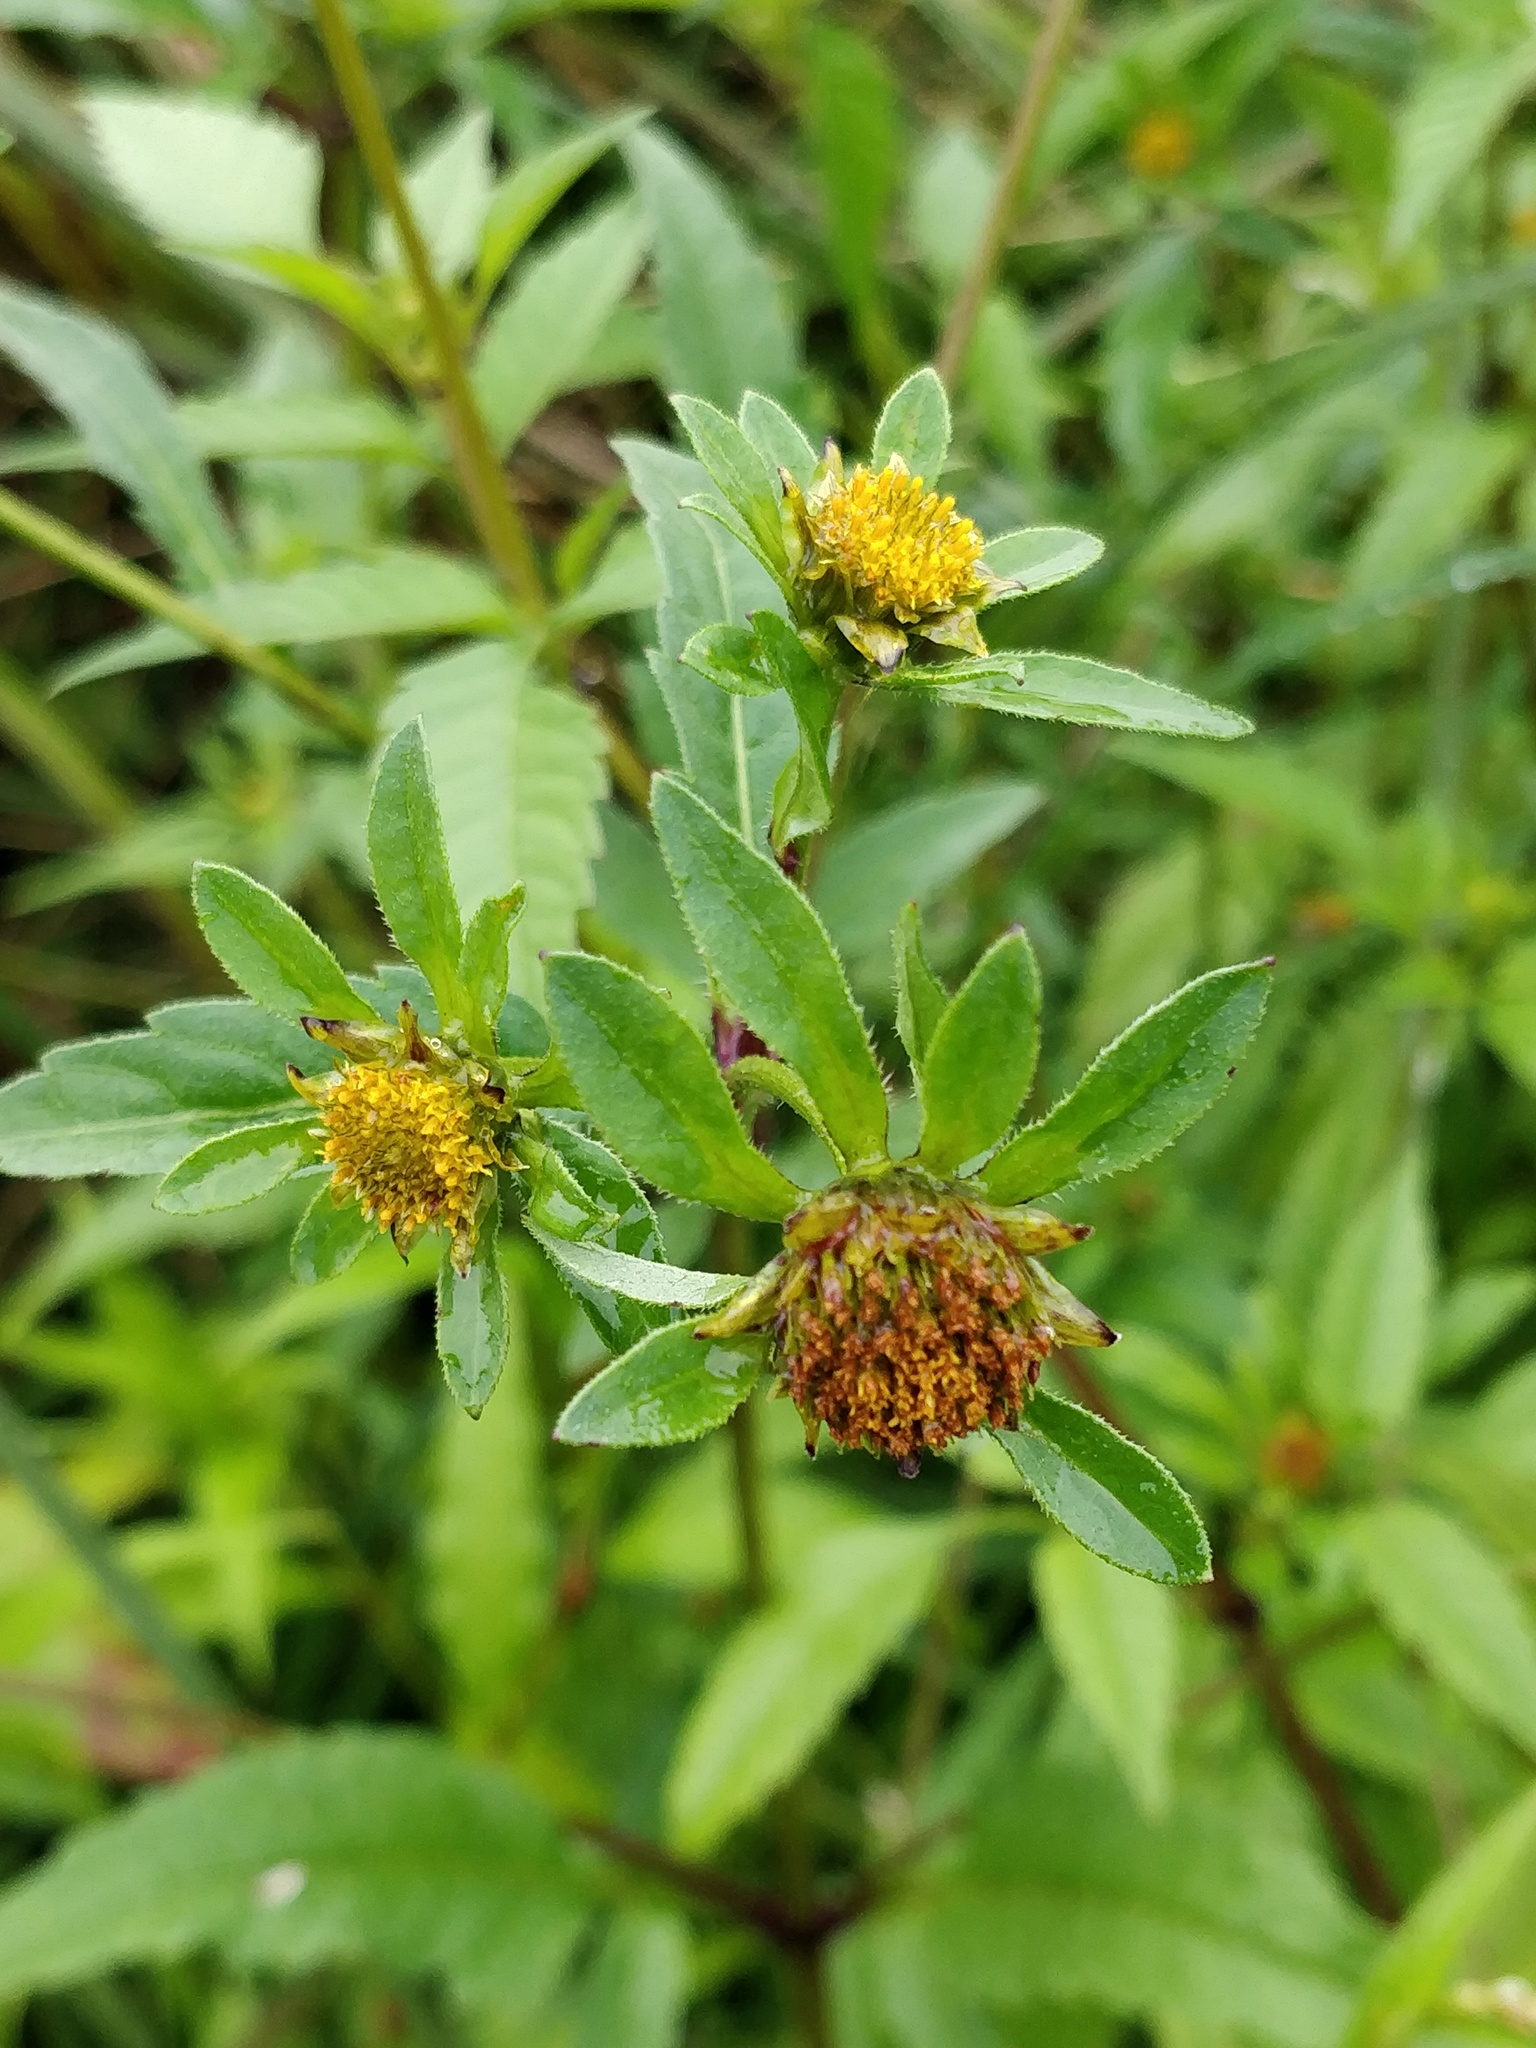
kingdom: Plantae
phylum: Tracheophyta
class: Magnoliopsida
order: Asterales
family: Asteraceae
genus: Bidens
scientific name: Bidens tripartita
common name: Trifid bur-marigold
